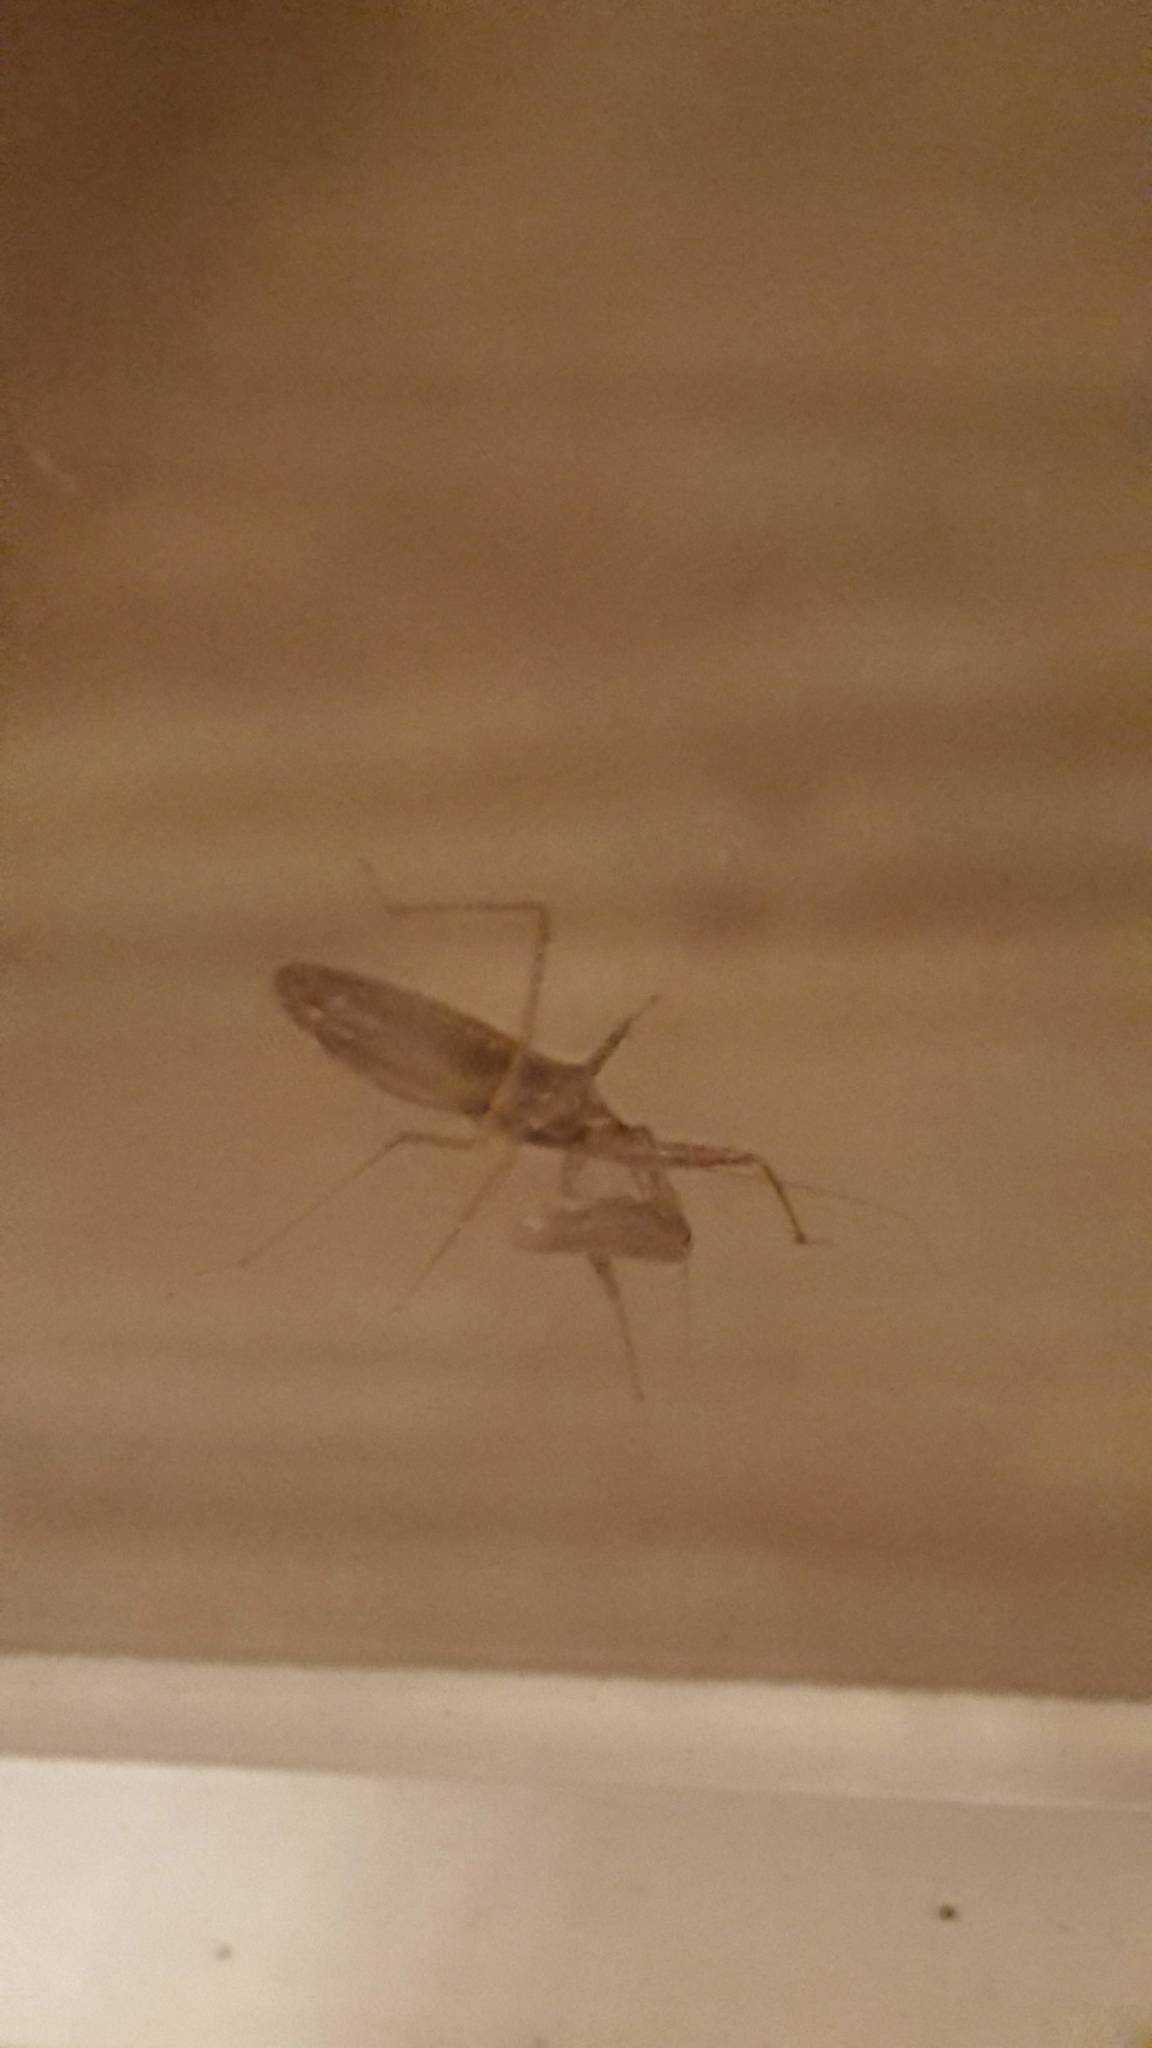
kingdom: Animalia
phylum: Arthropoda
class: Insecta
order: Hemiptera
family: Nabidae
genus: Nabis
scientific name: Nabis
